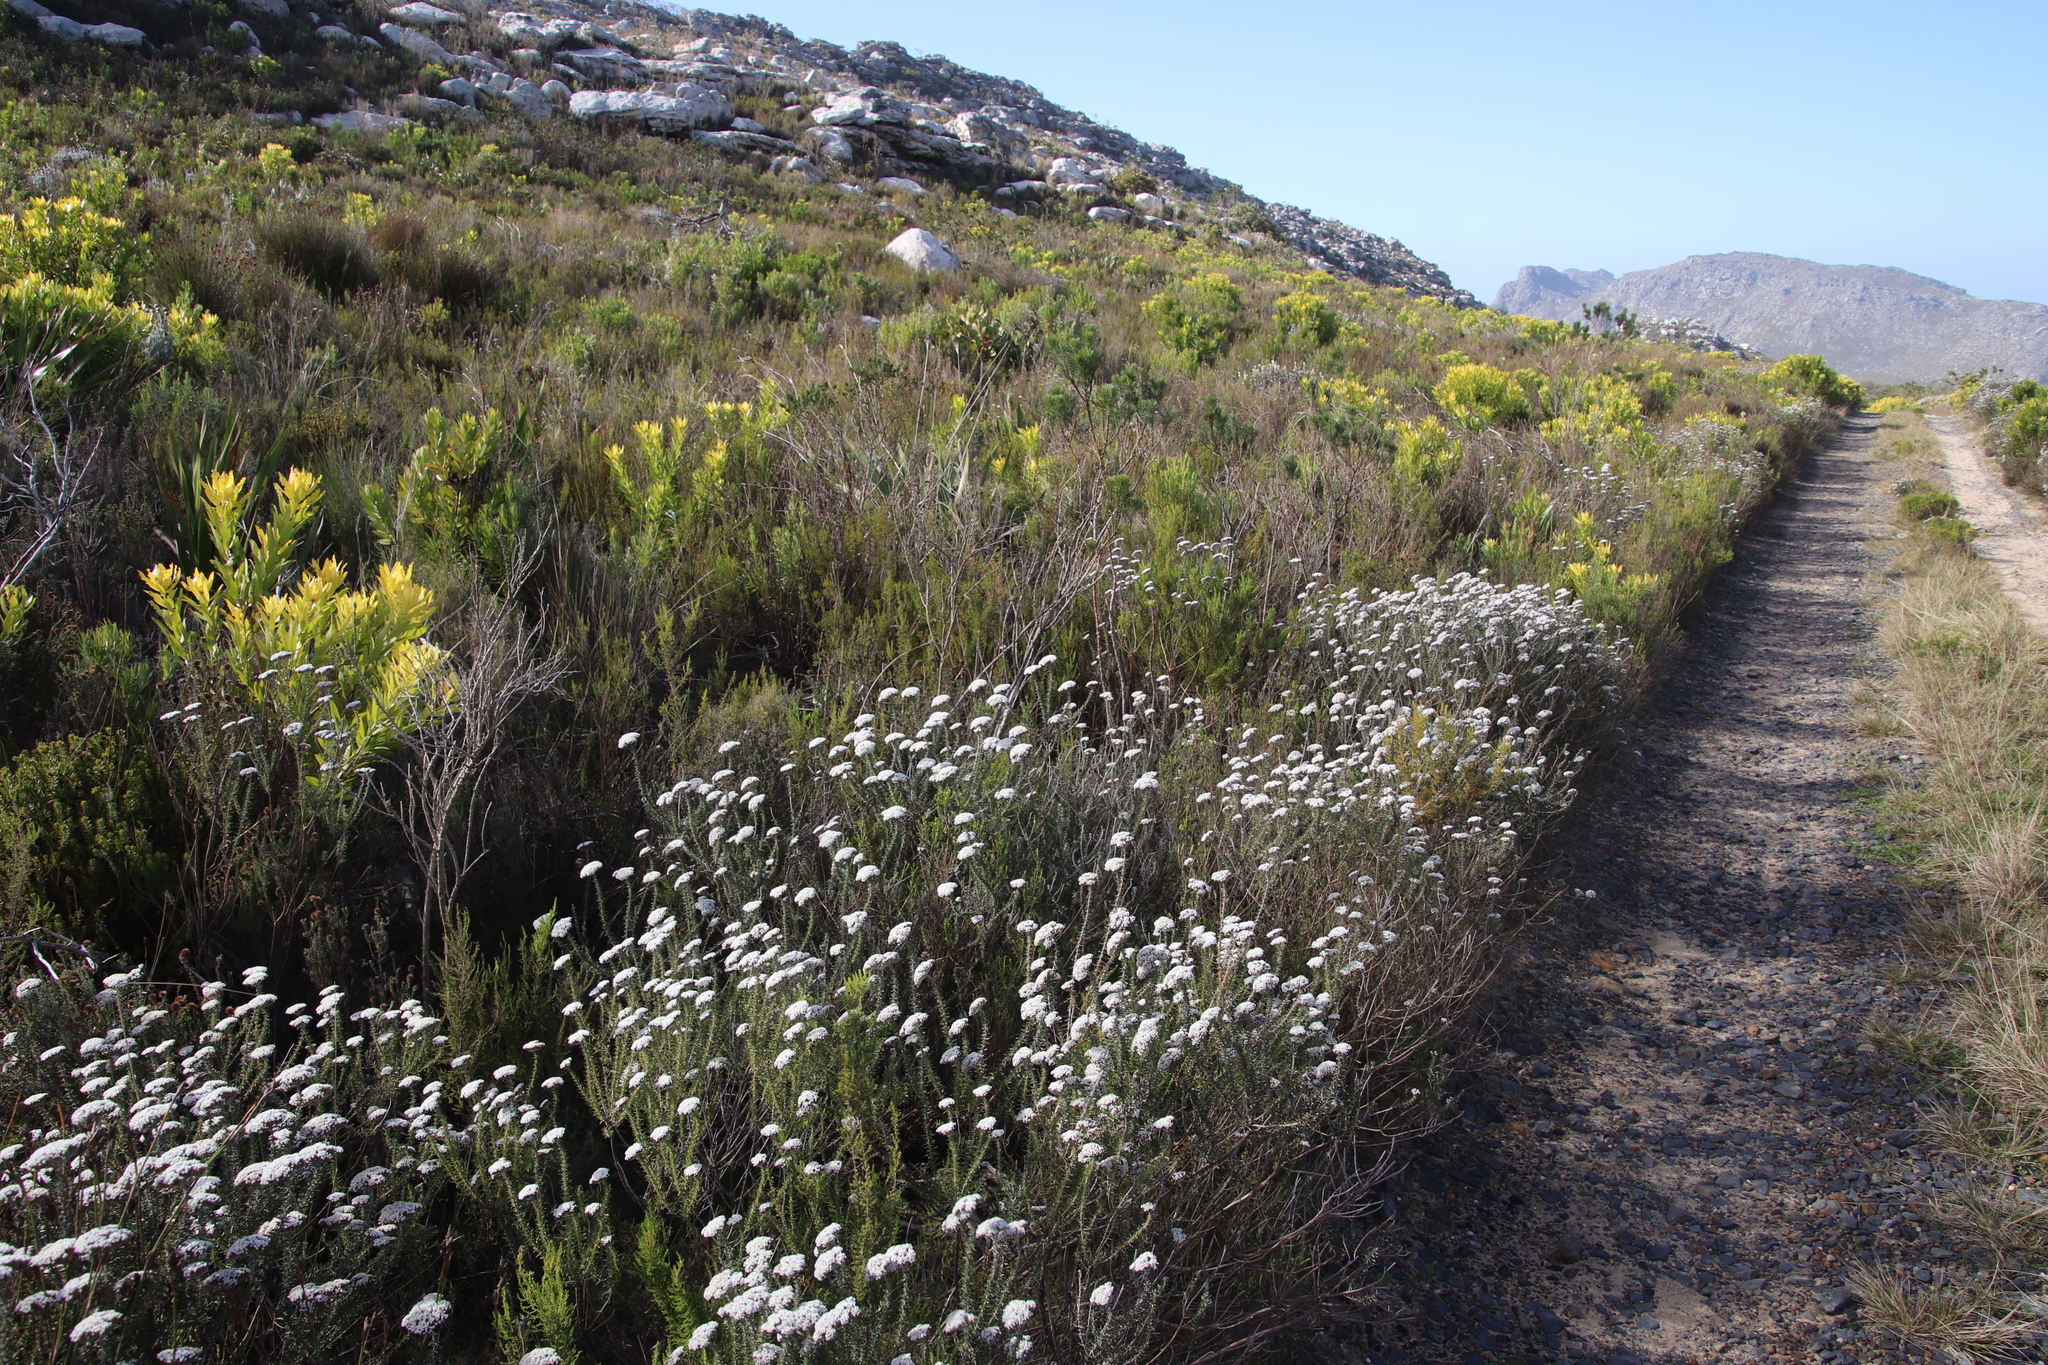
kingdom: Plantae
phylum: Tracheophyta
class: Magnoliopsida
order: Asterales
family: Asteraceae
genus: Metalasia
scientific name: Metalasia densa
